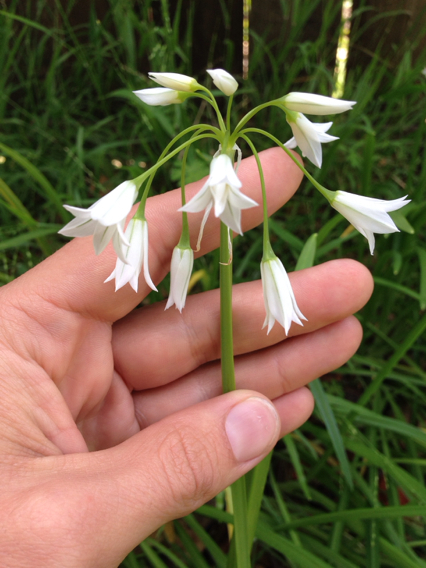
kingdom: Plantae
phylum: Tracheophyta
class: Liliopsida
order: Asparagales
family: Amaryllidaceae
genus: Allium
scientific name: Allium triquetrum
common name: Three-cornered garlic
